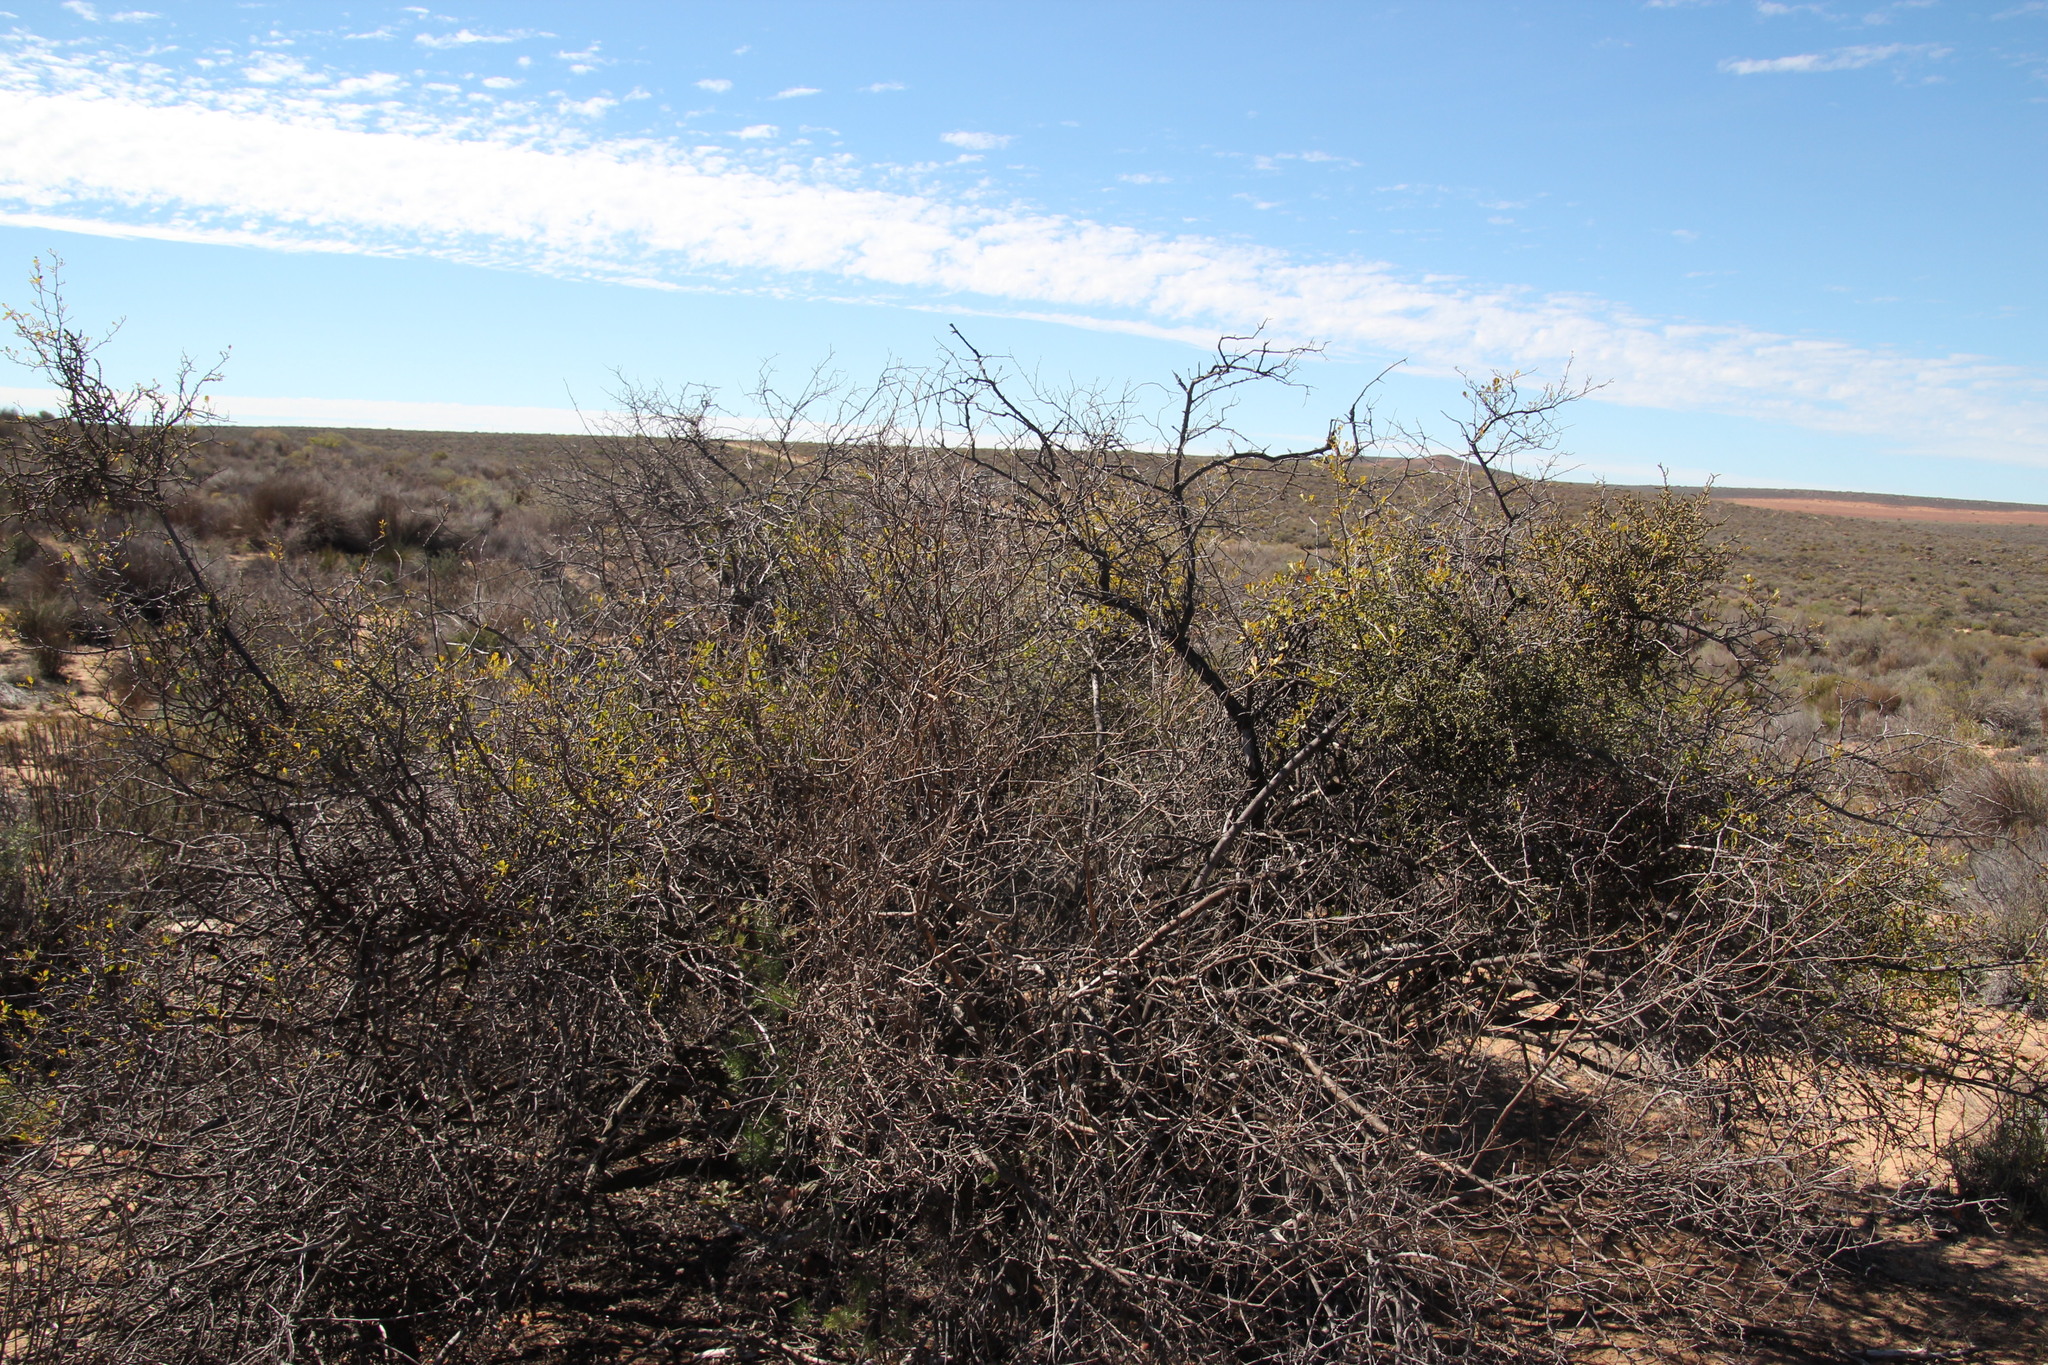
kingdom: Plantae
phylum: Tracheophyta
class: Magnoliopsida
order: Sapindales
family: Anacardiaceae
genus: Searsia
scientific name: Searsia undulata
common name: Namaqua kunibush
